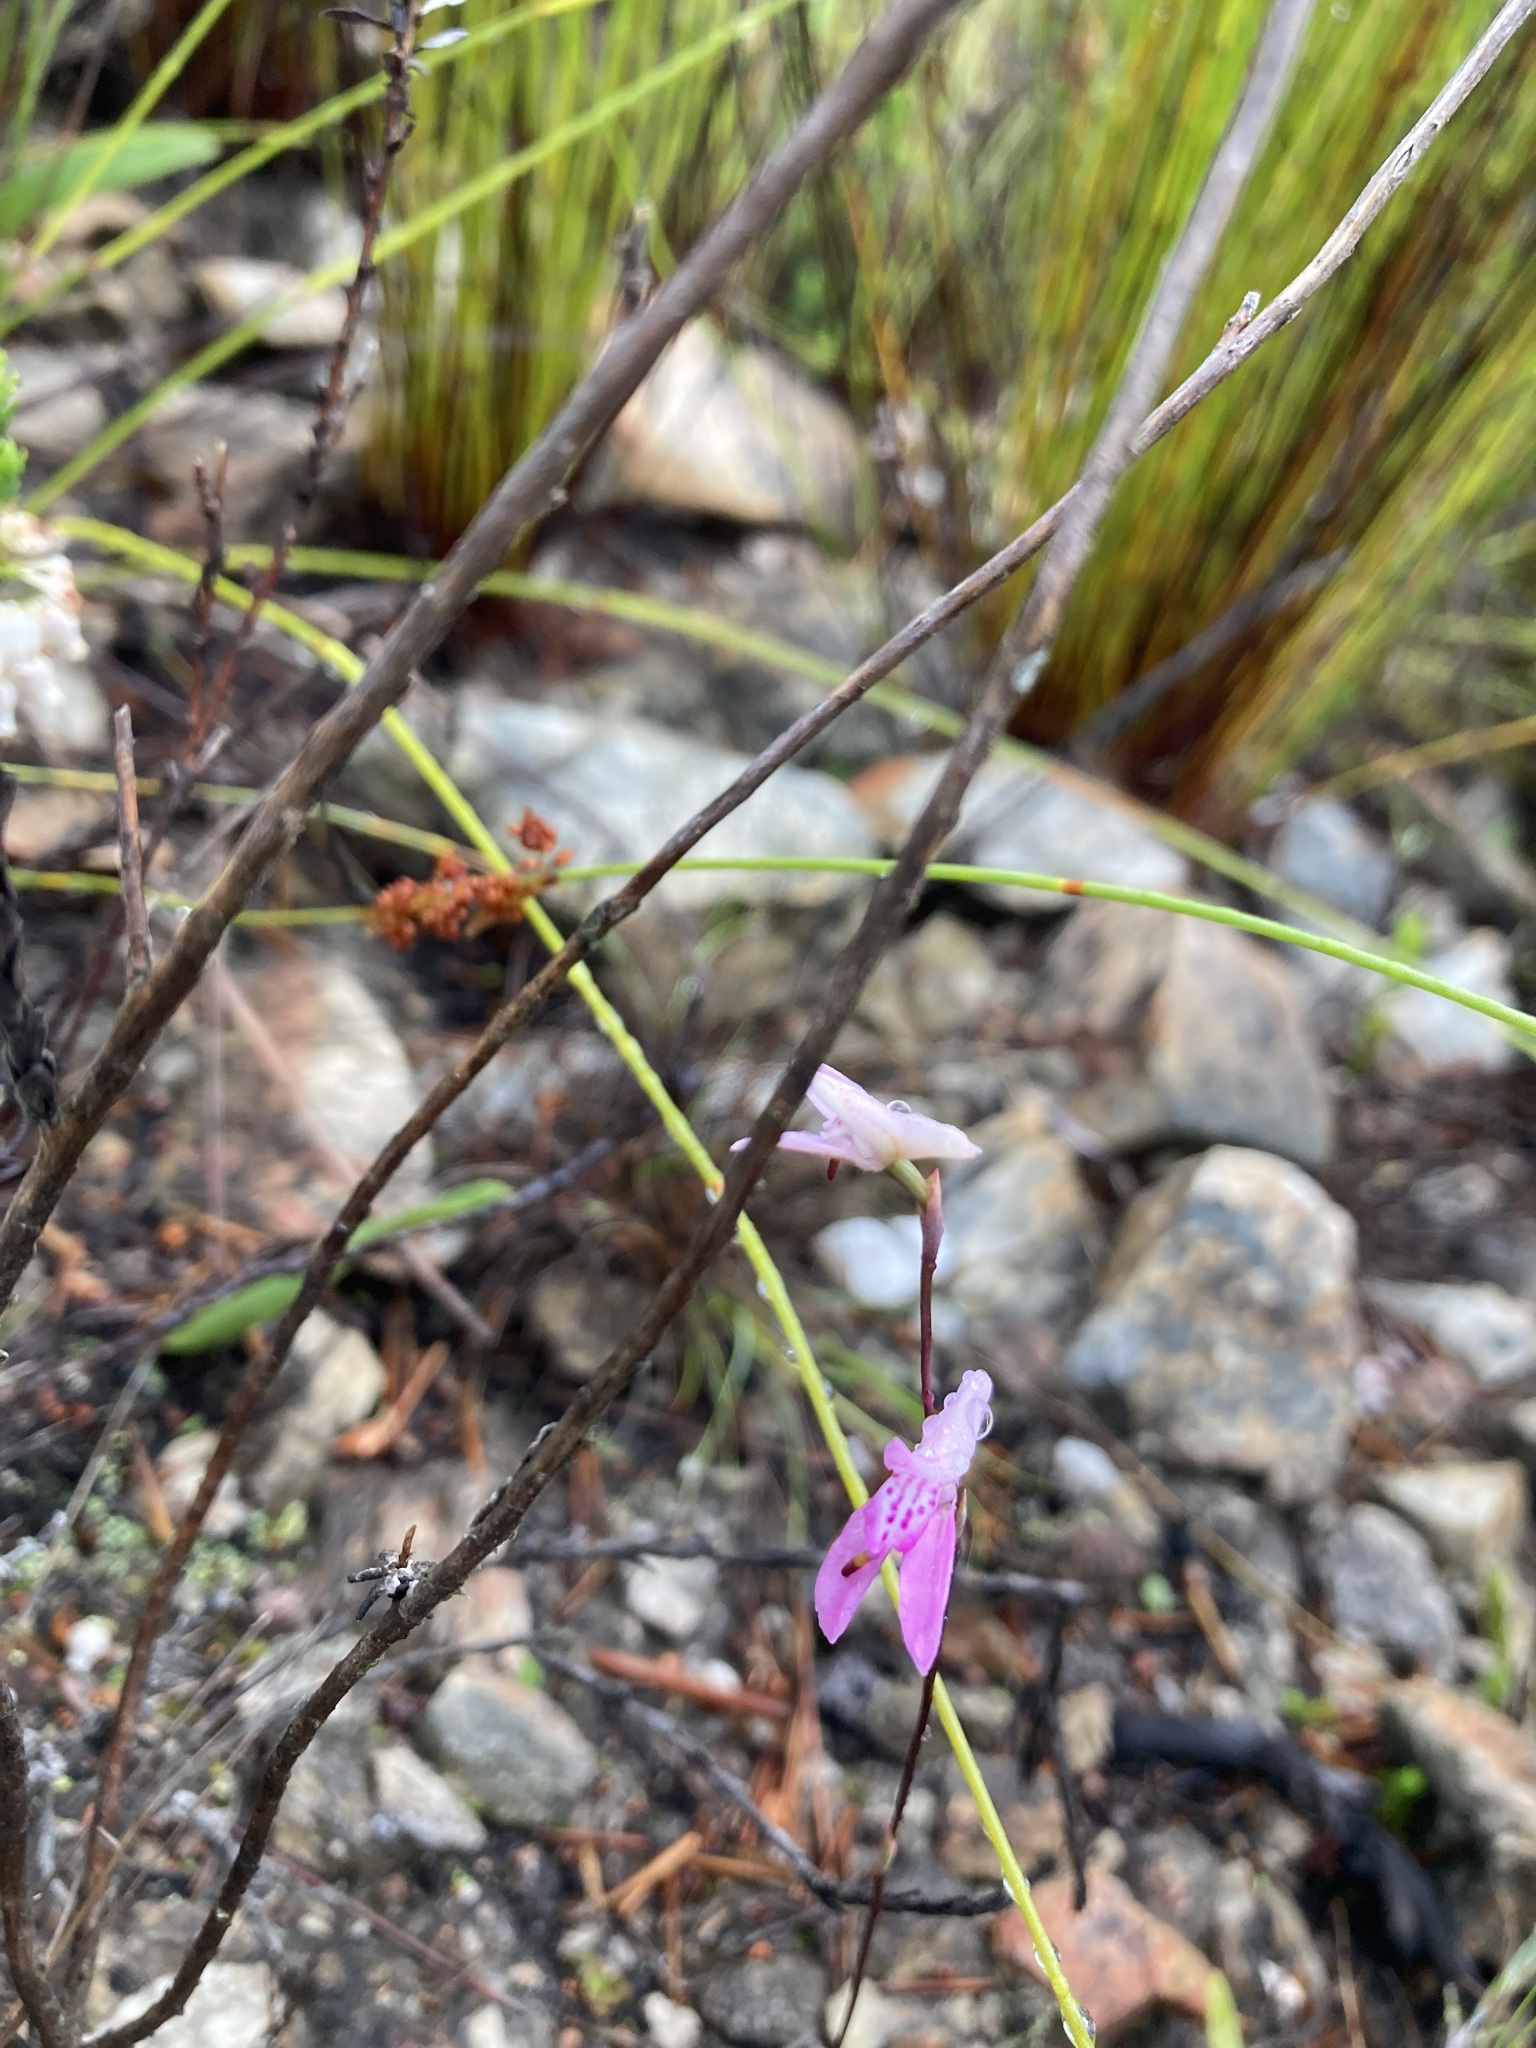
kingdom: Plantae
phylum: Tracheophyta
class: Liliopsida
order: Asparagales
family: Orchidaceae
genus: Disa
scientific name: Disa inflexa
